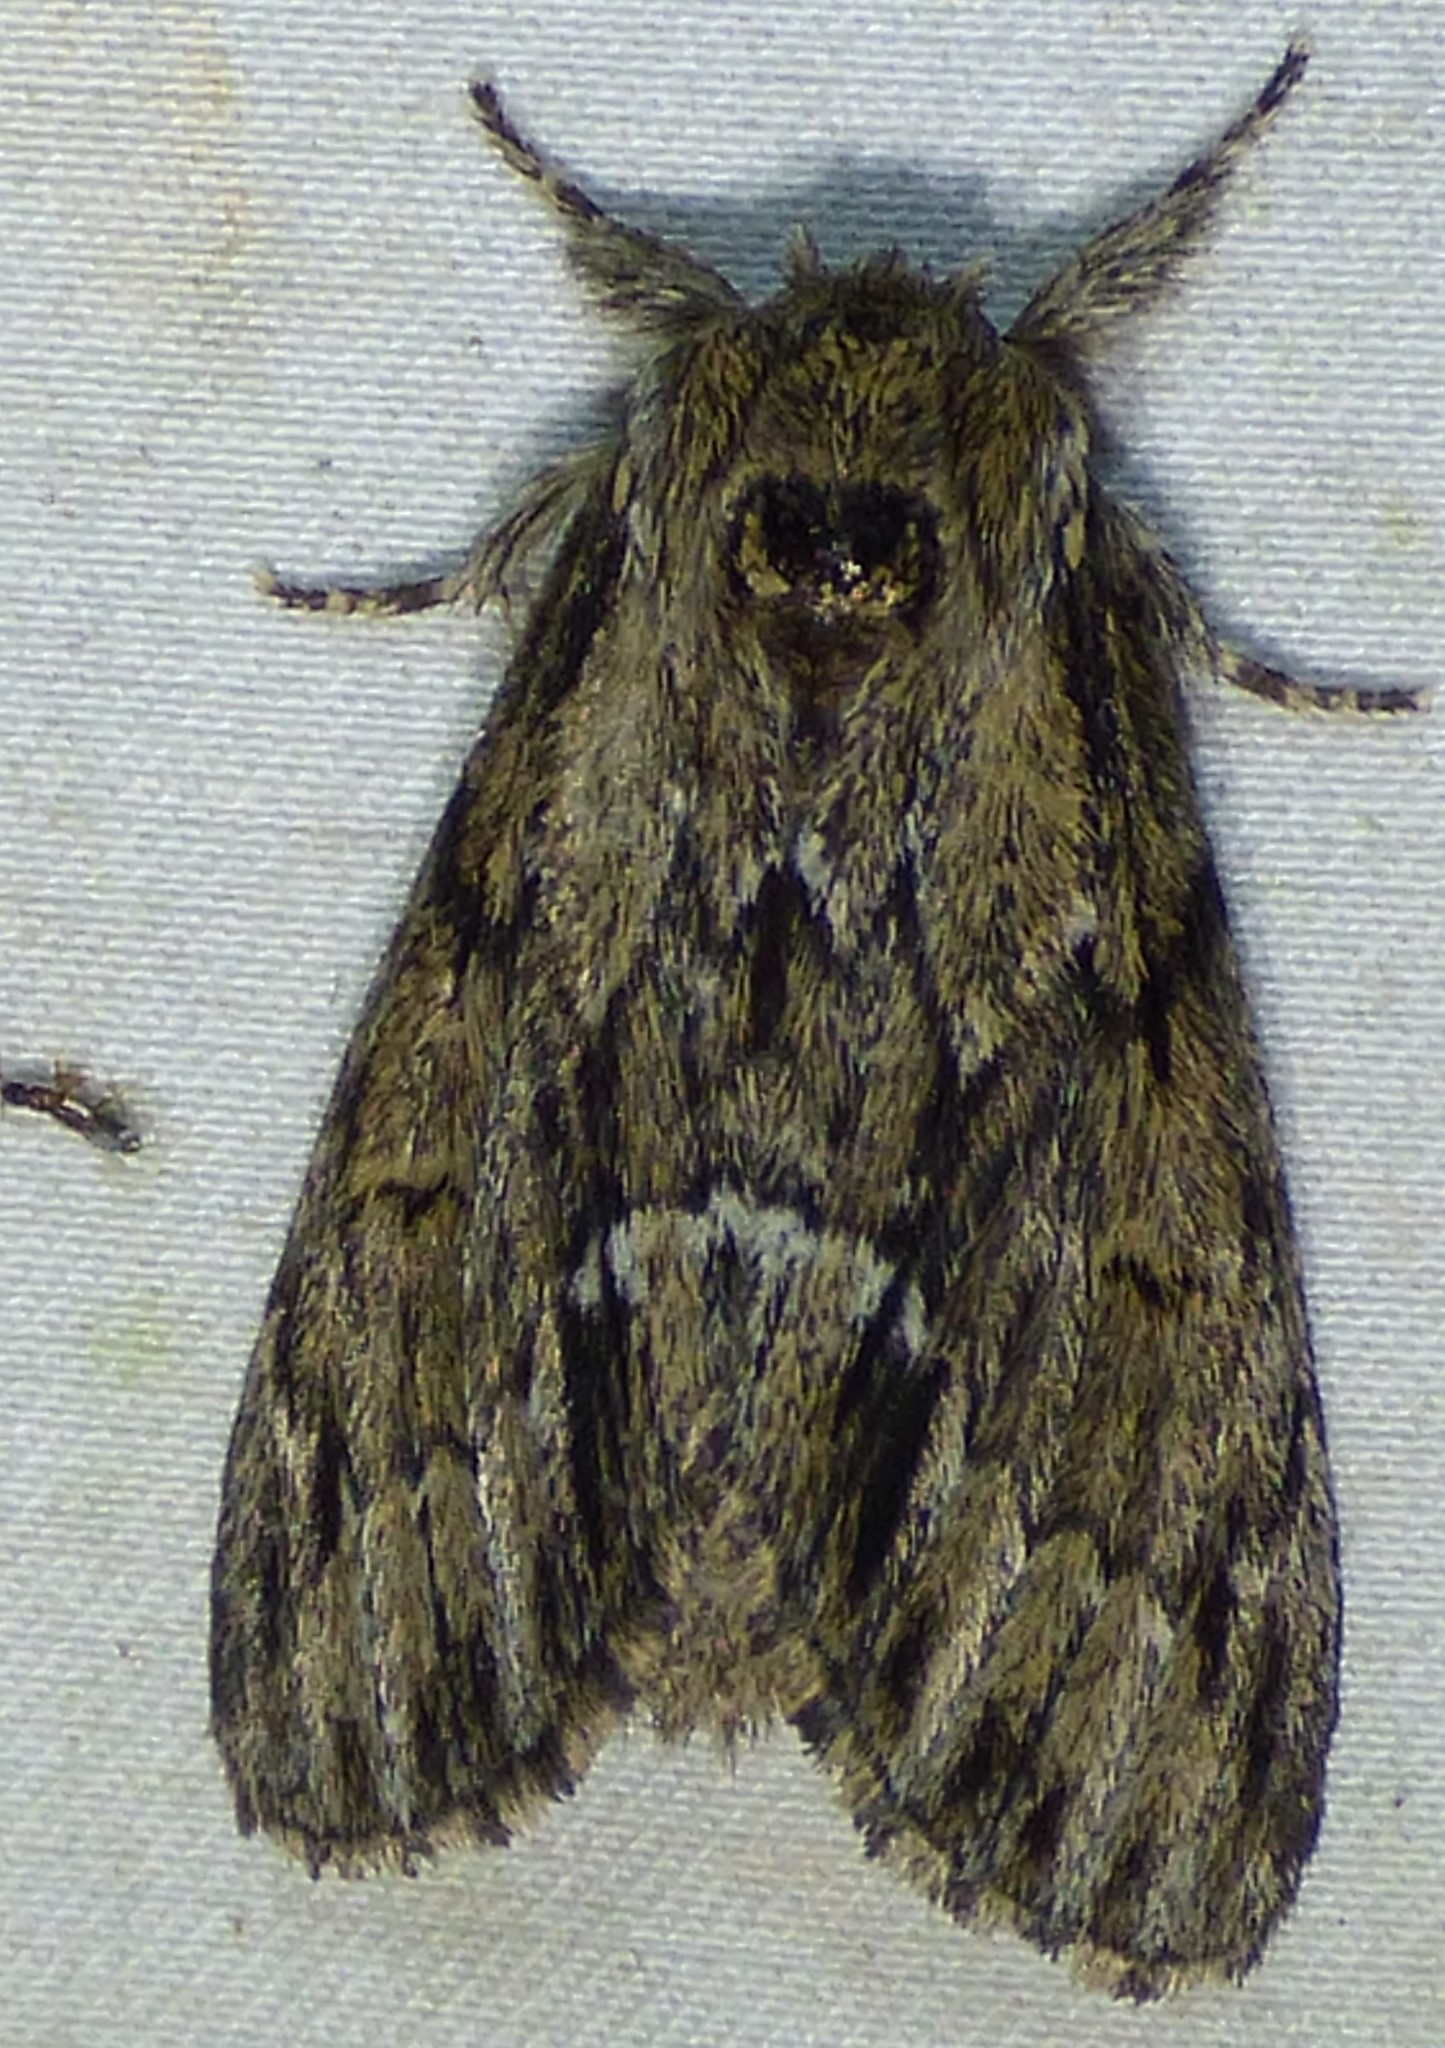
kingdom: Animalia
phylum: Arthropoda
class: Insecta
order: Lepidoptera
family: Notodontidae
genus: Paraeschra
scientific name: Paraeschra georgica
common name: Georgian prominent
